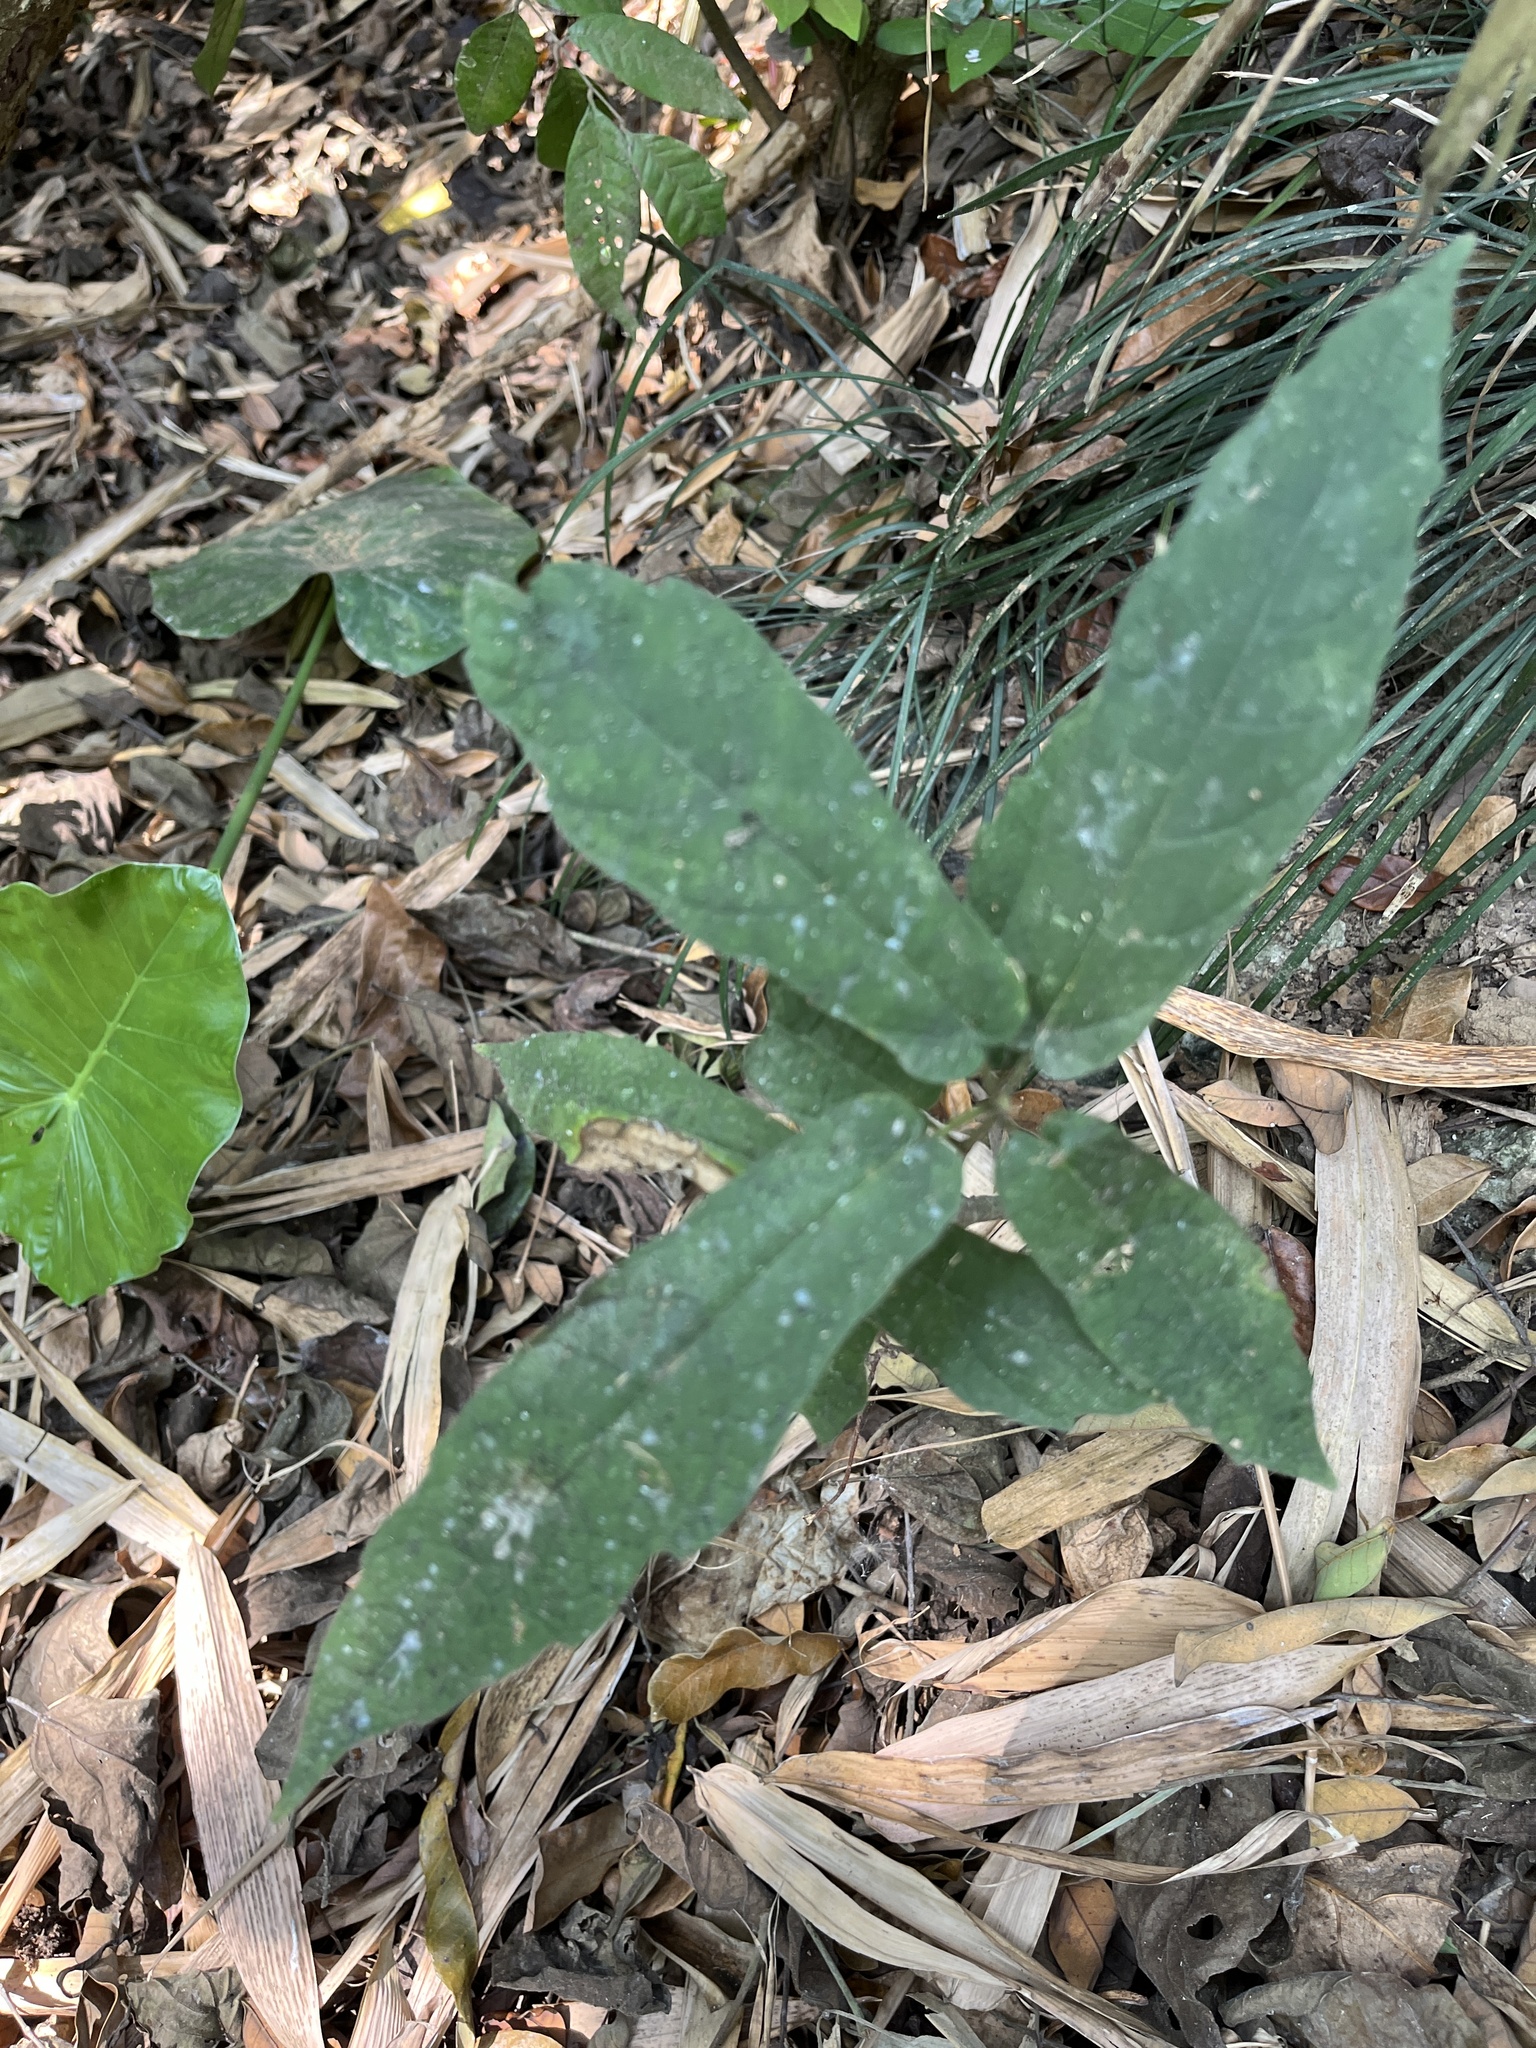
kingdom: Plantae
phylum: Tracheophyta
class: Magnoliopsida
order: Rosales
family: Moraceae
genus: Ficus
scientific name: Ficus erecta
